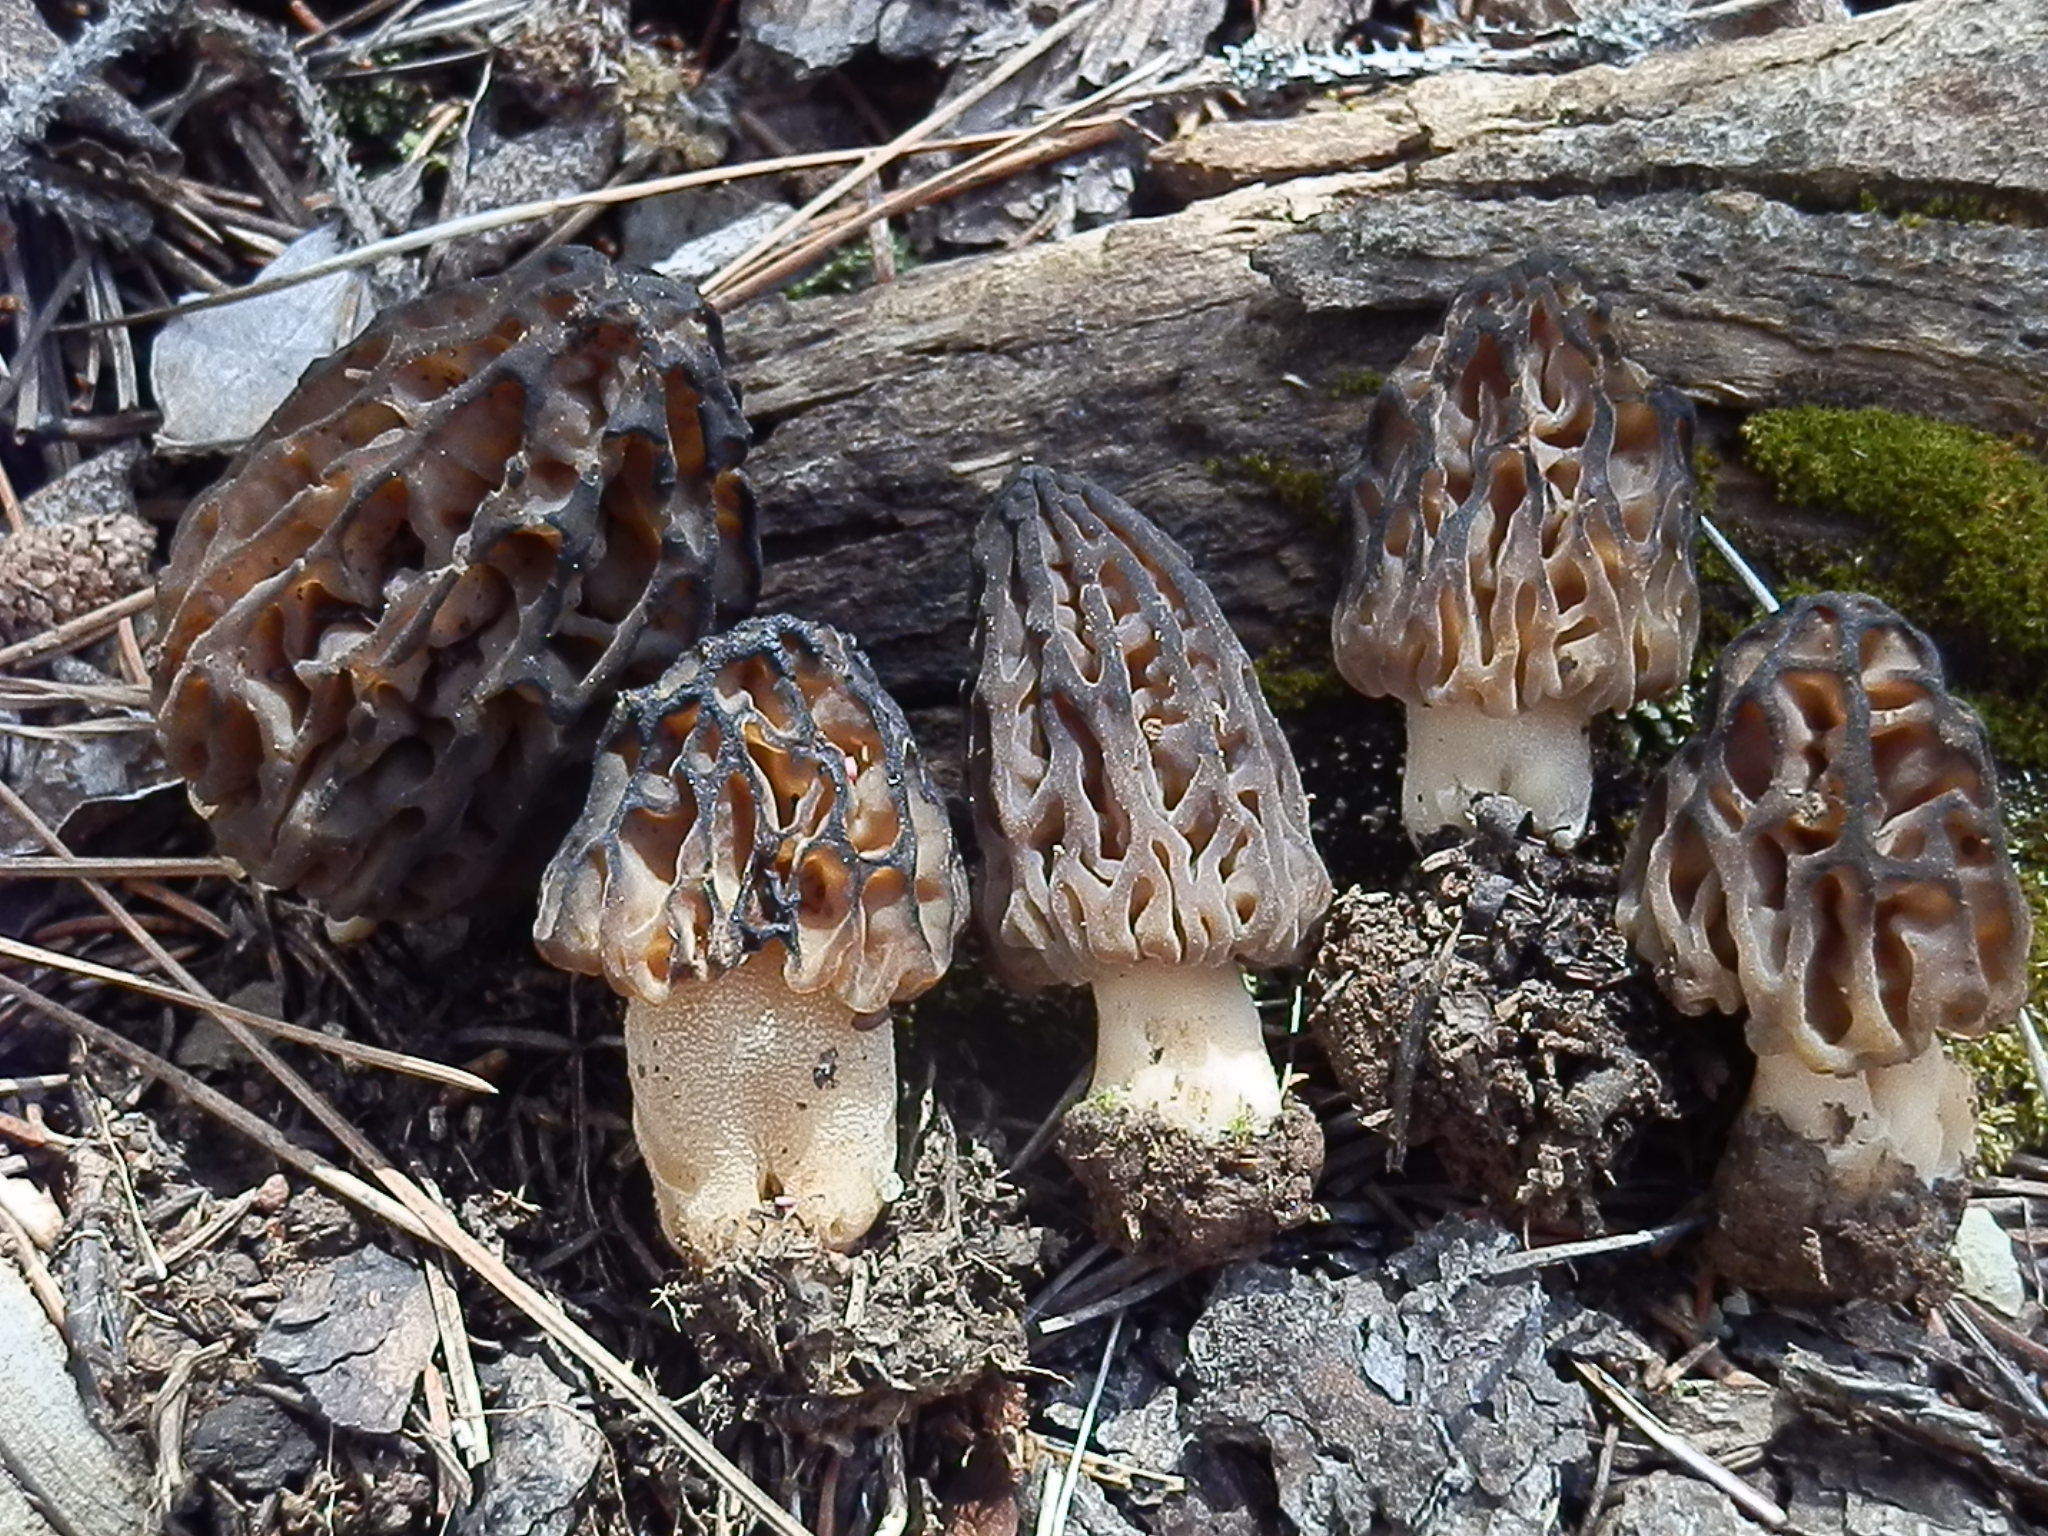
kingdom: Fungi
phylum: Ascomycota
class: Pezizomycetes
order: Pezizales
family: Morchellaceae
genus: Morchella
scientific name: Morchella kaibabensis
